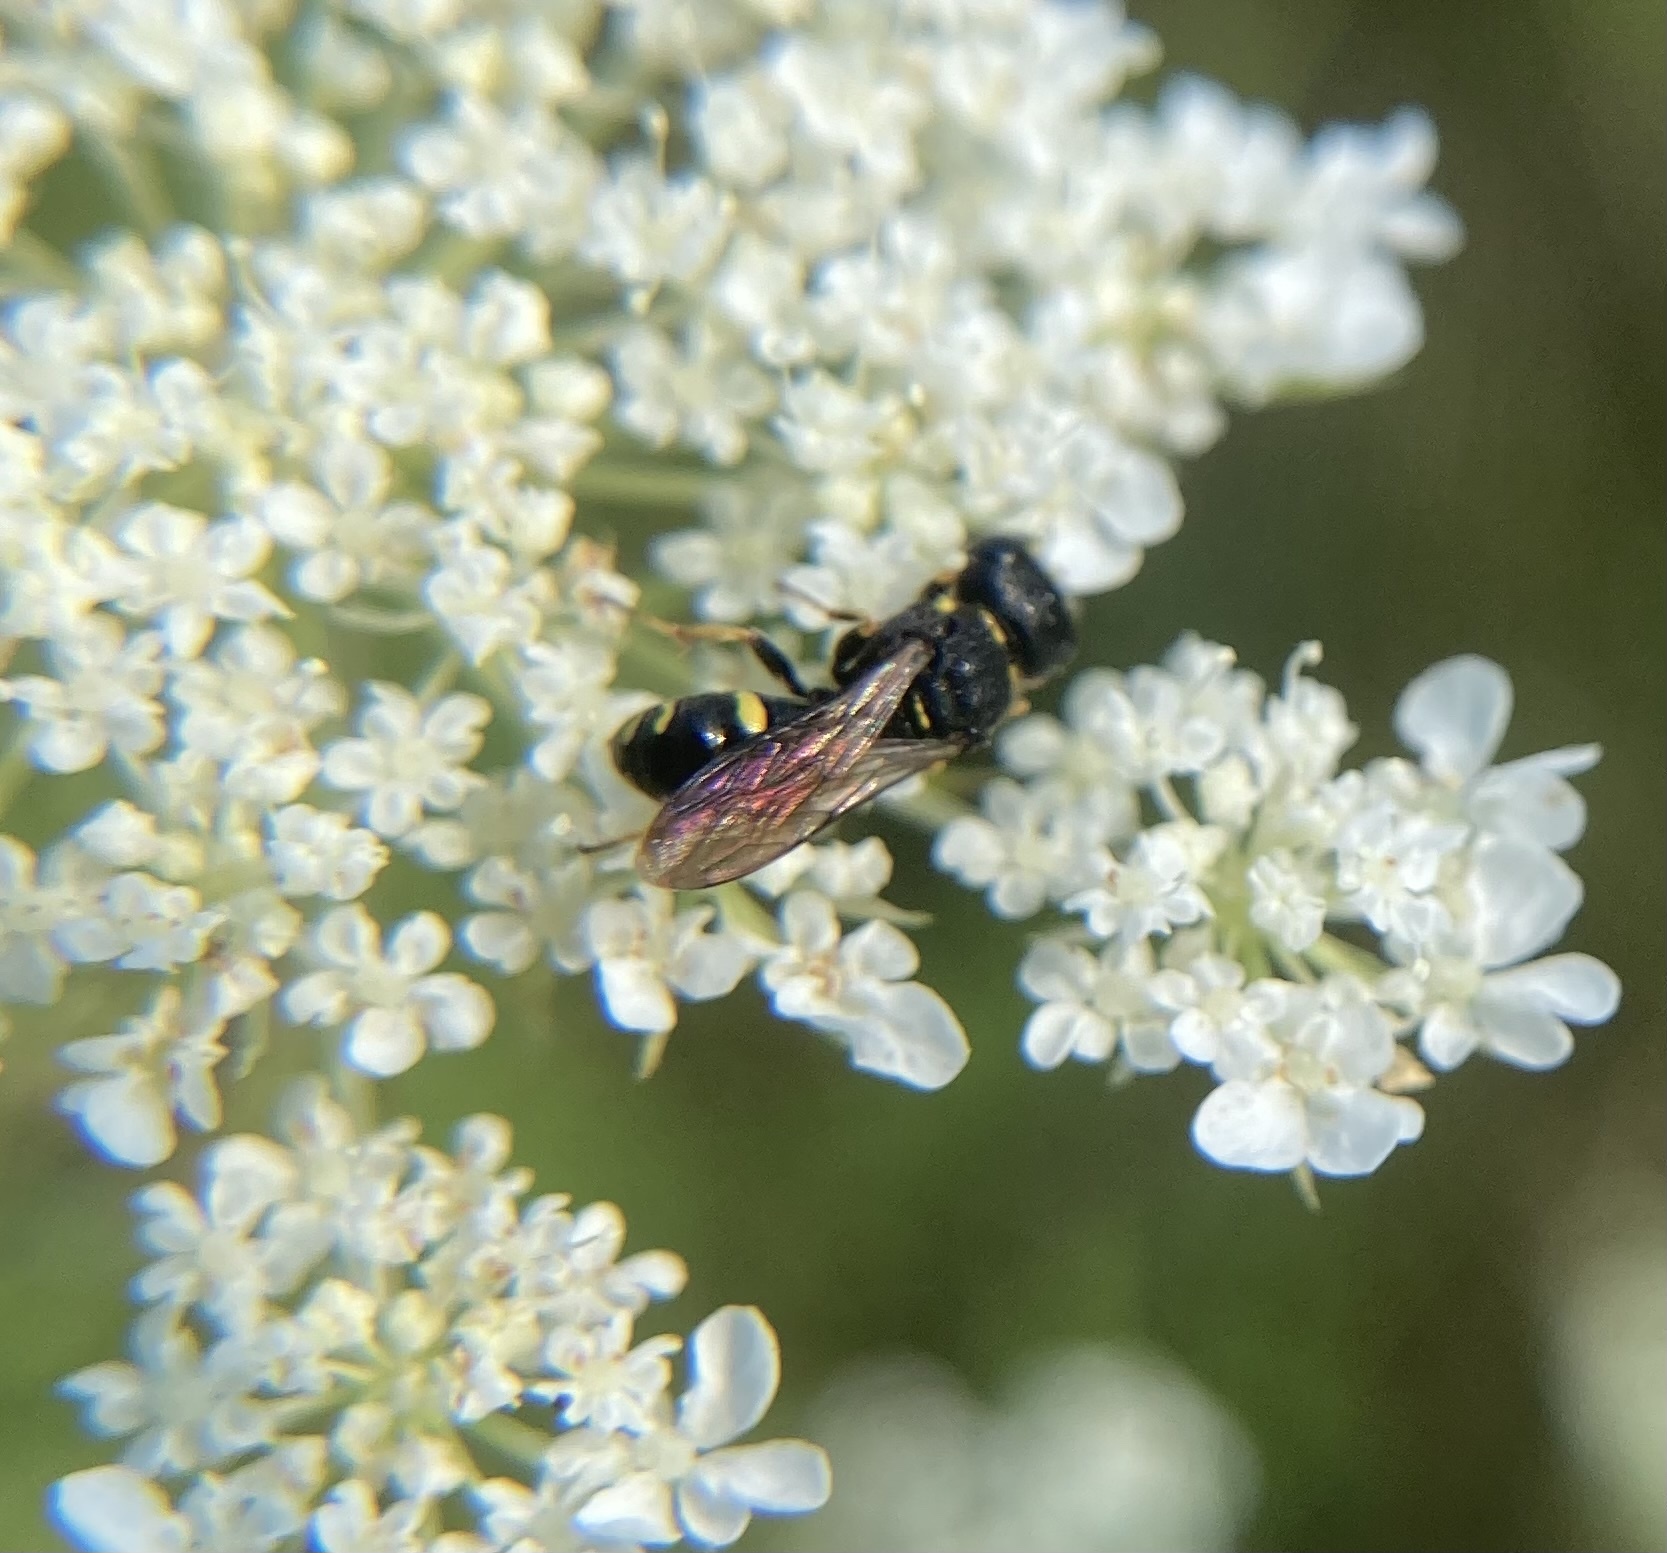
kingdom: Animalia
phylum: Arthropoda
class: Insecta
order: Hymenoptera
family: Crabronidae
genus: Ectemnius
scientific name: Ectemnius continuus
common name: Common ectemnius
